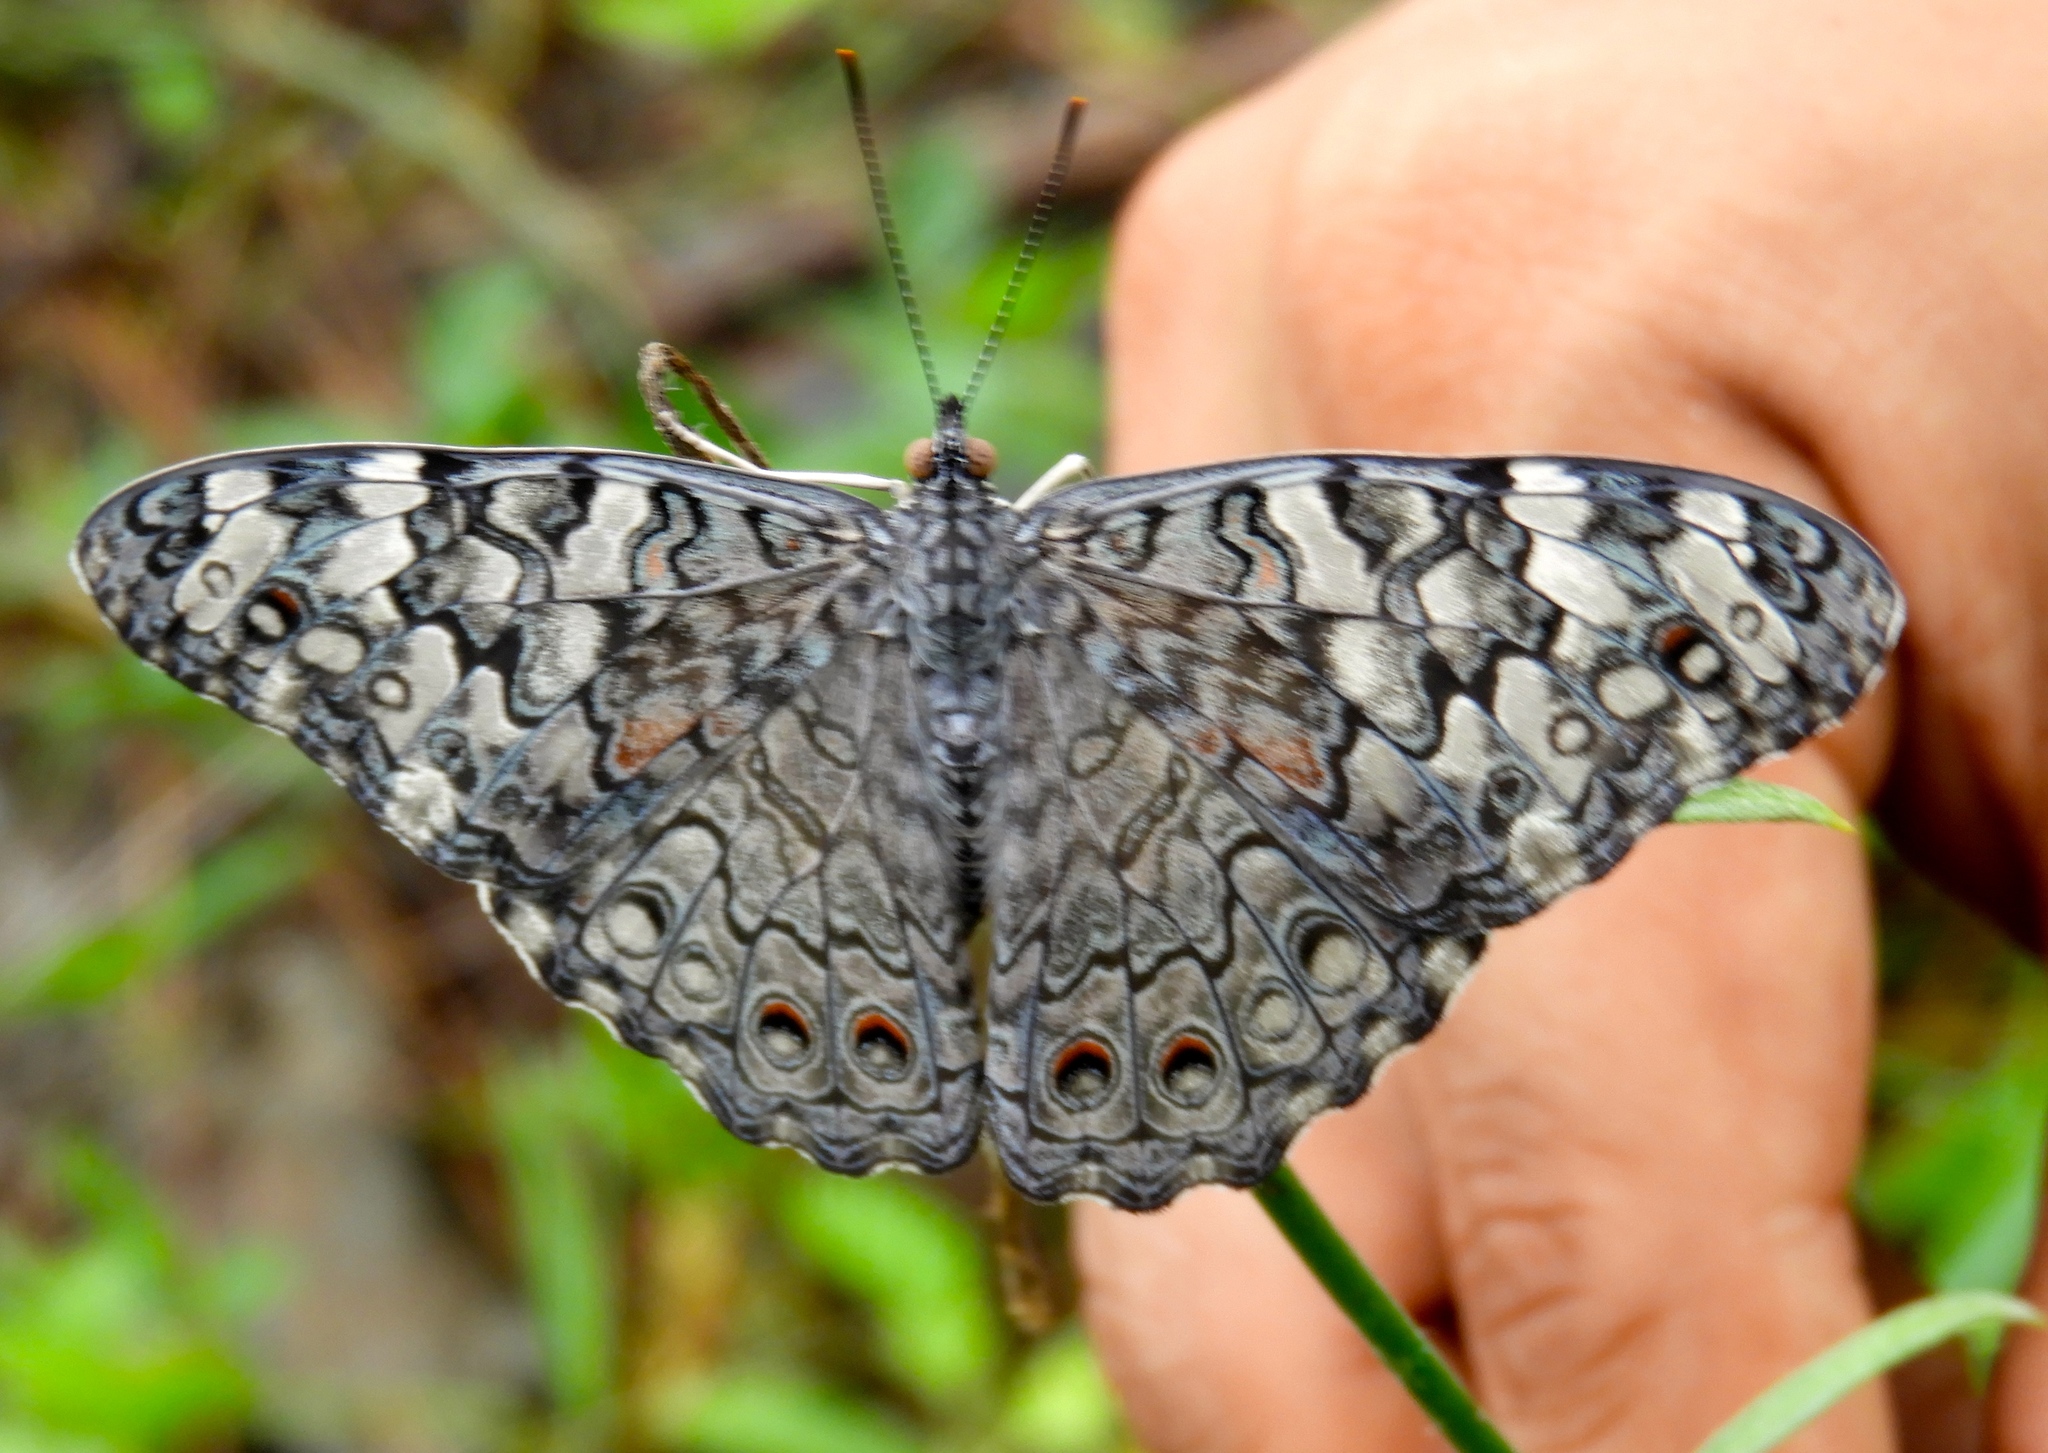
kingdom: Animalia
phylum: Arthropoda
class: Insecta
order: Lepidoptera
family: Nymphalidae
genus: Hamadryas
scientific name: Hamadryas februa
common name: Gray cracker
